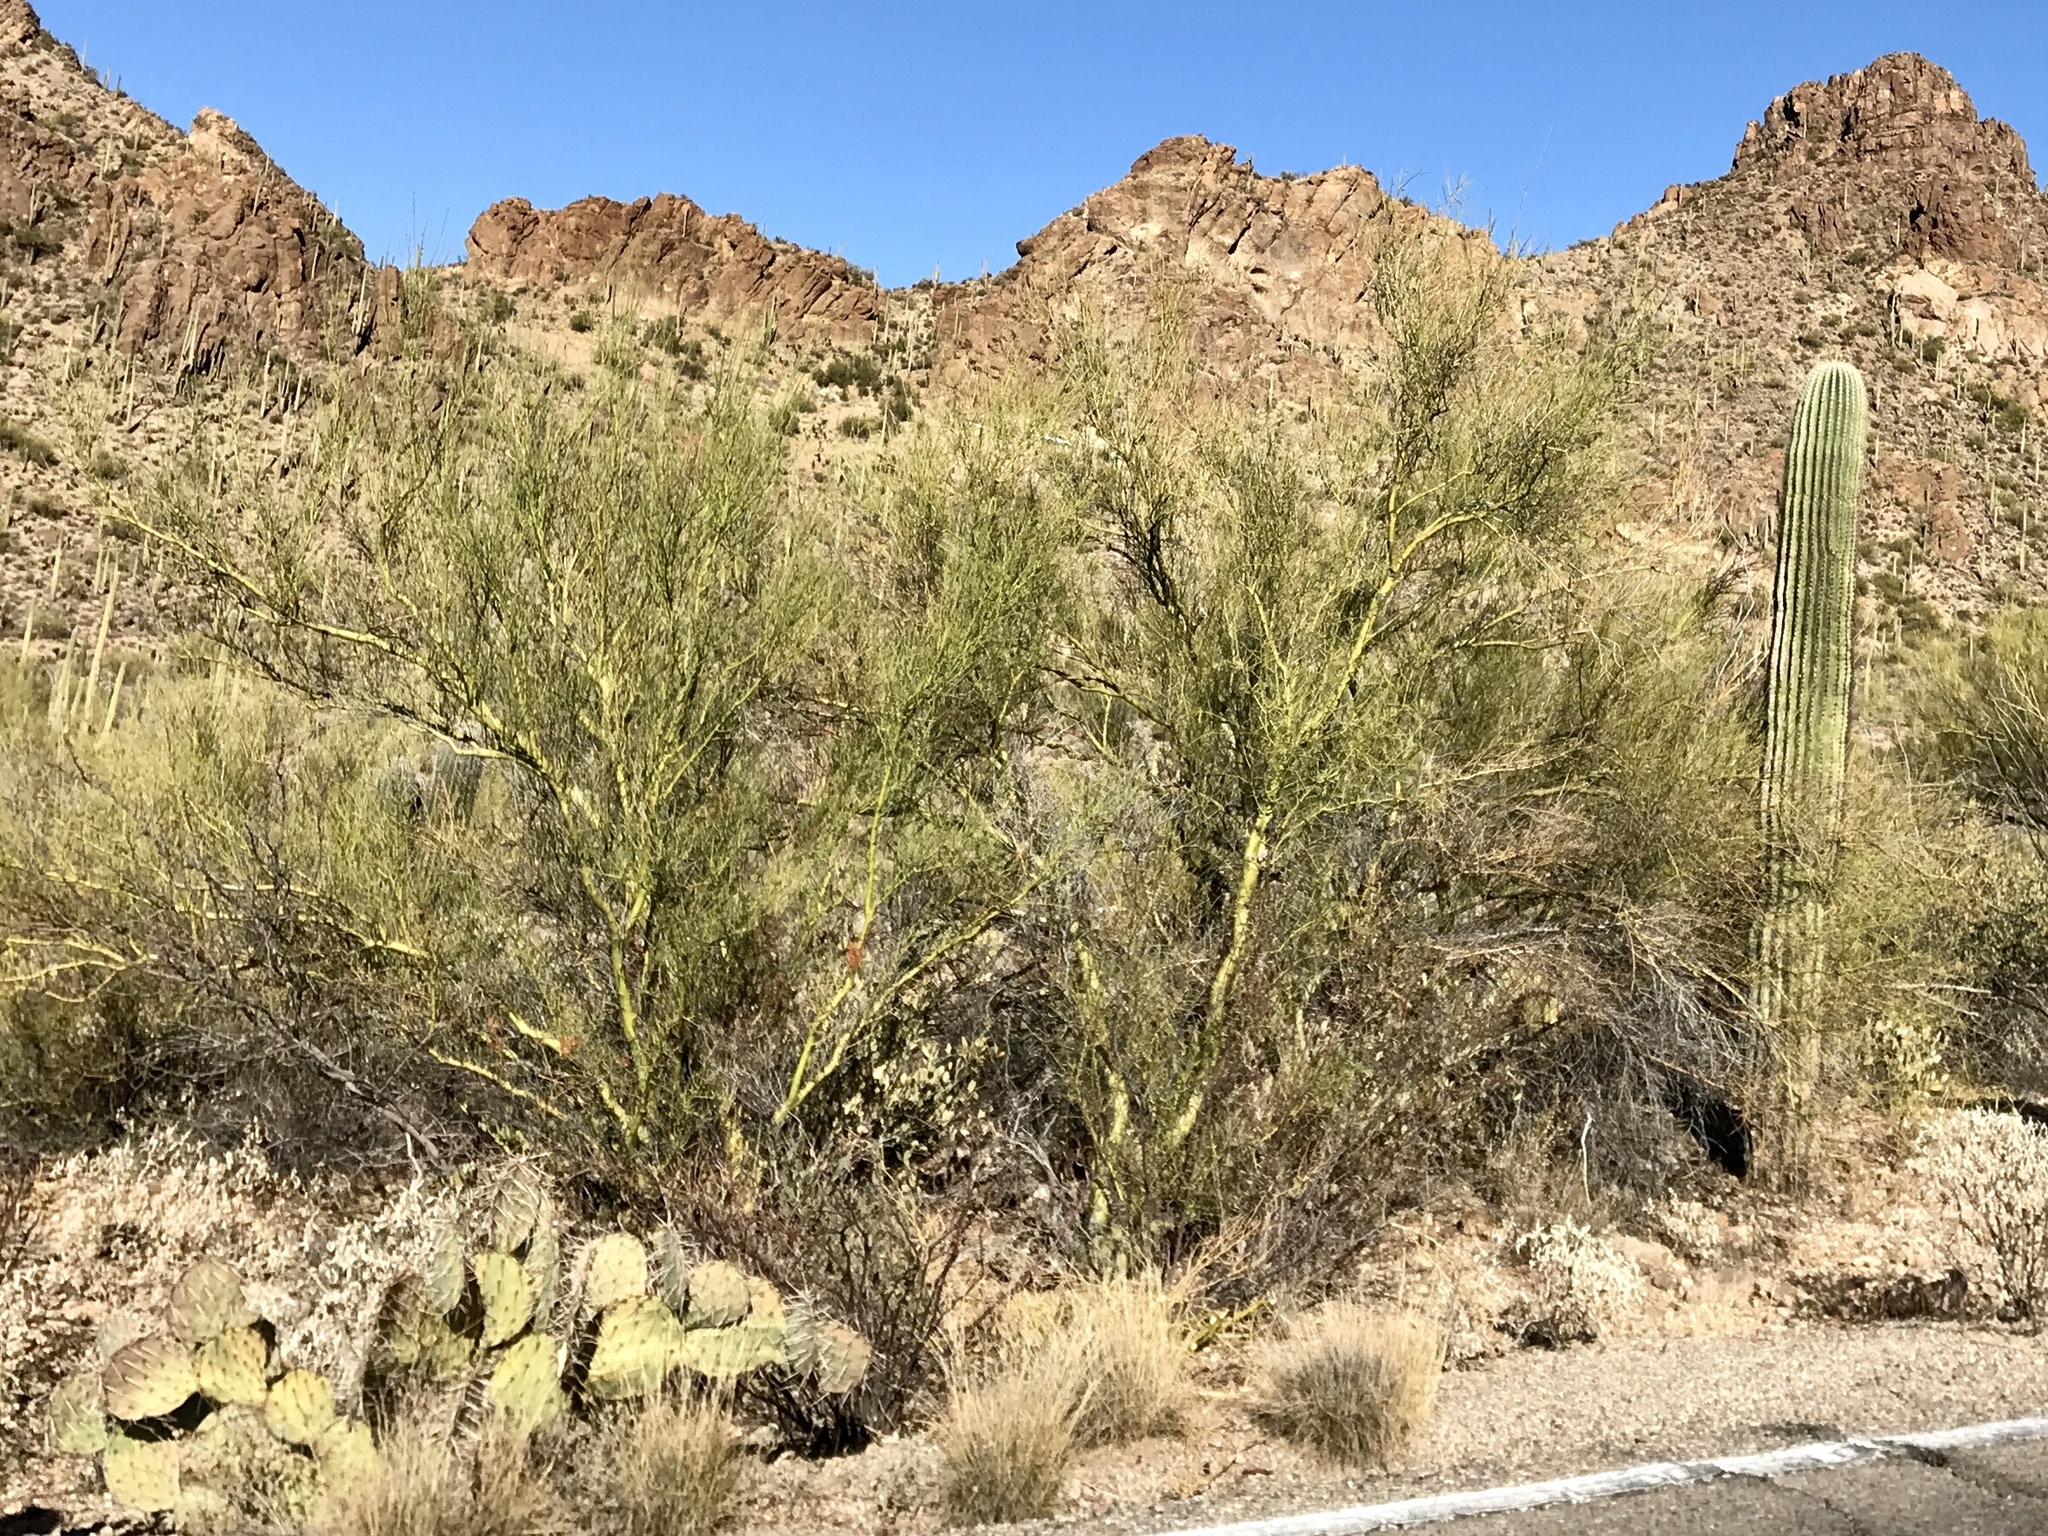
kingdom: Plantae
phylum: Tracheophyta
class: Magnoliopsida
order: Fabales
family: Fabaceae
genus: Parkinsonia
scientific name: Parkinsonia microphylla
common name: Yellow paloverde
